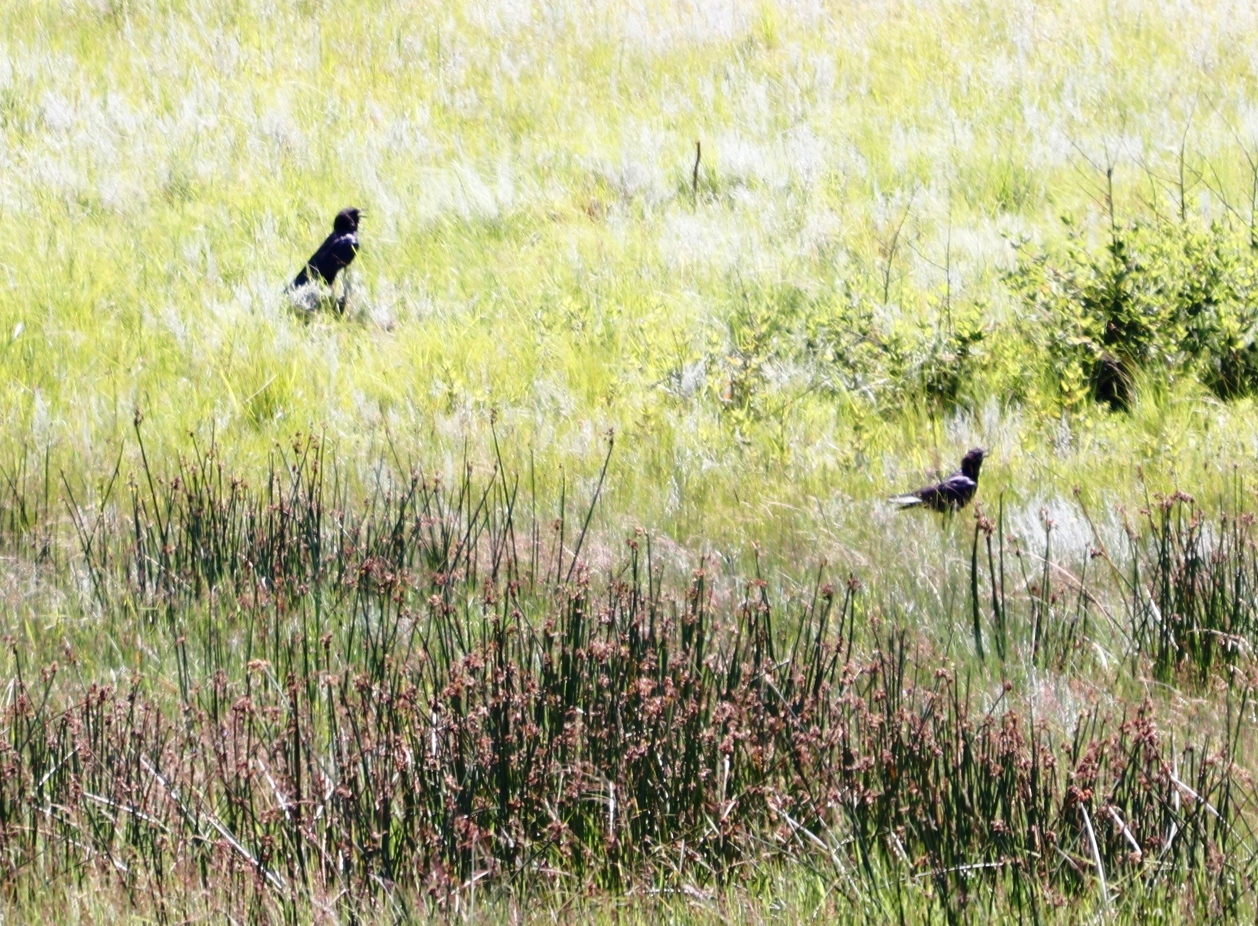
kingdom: Animalia
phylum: Chordata
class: Aves
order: Passeriformes
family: Corvidae
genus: Corvus
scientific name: Corvus capensis
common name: Cape crow
